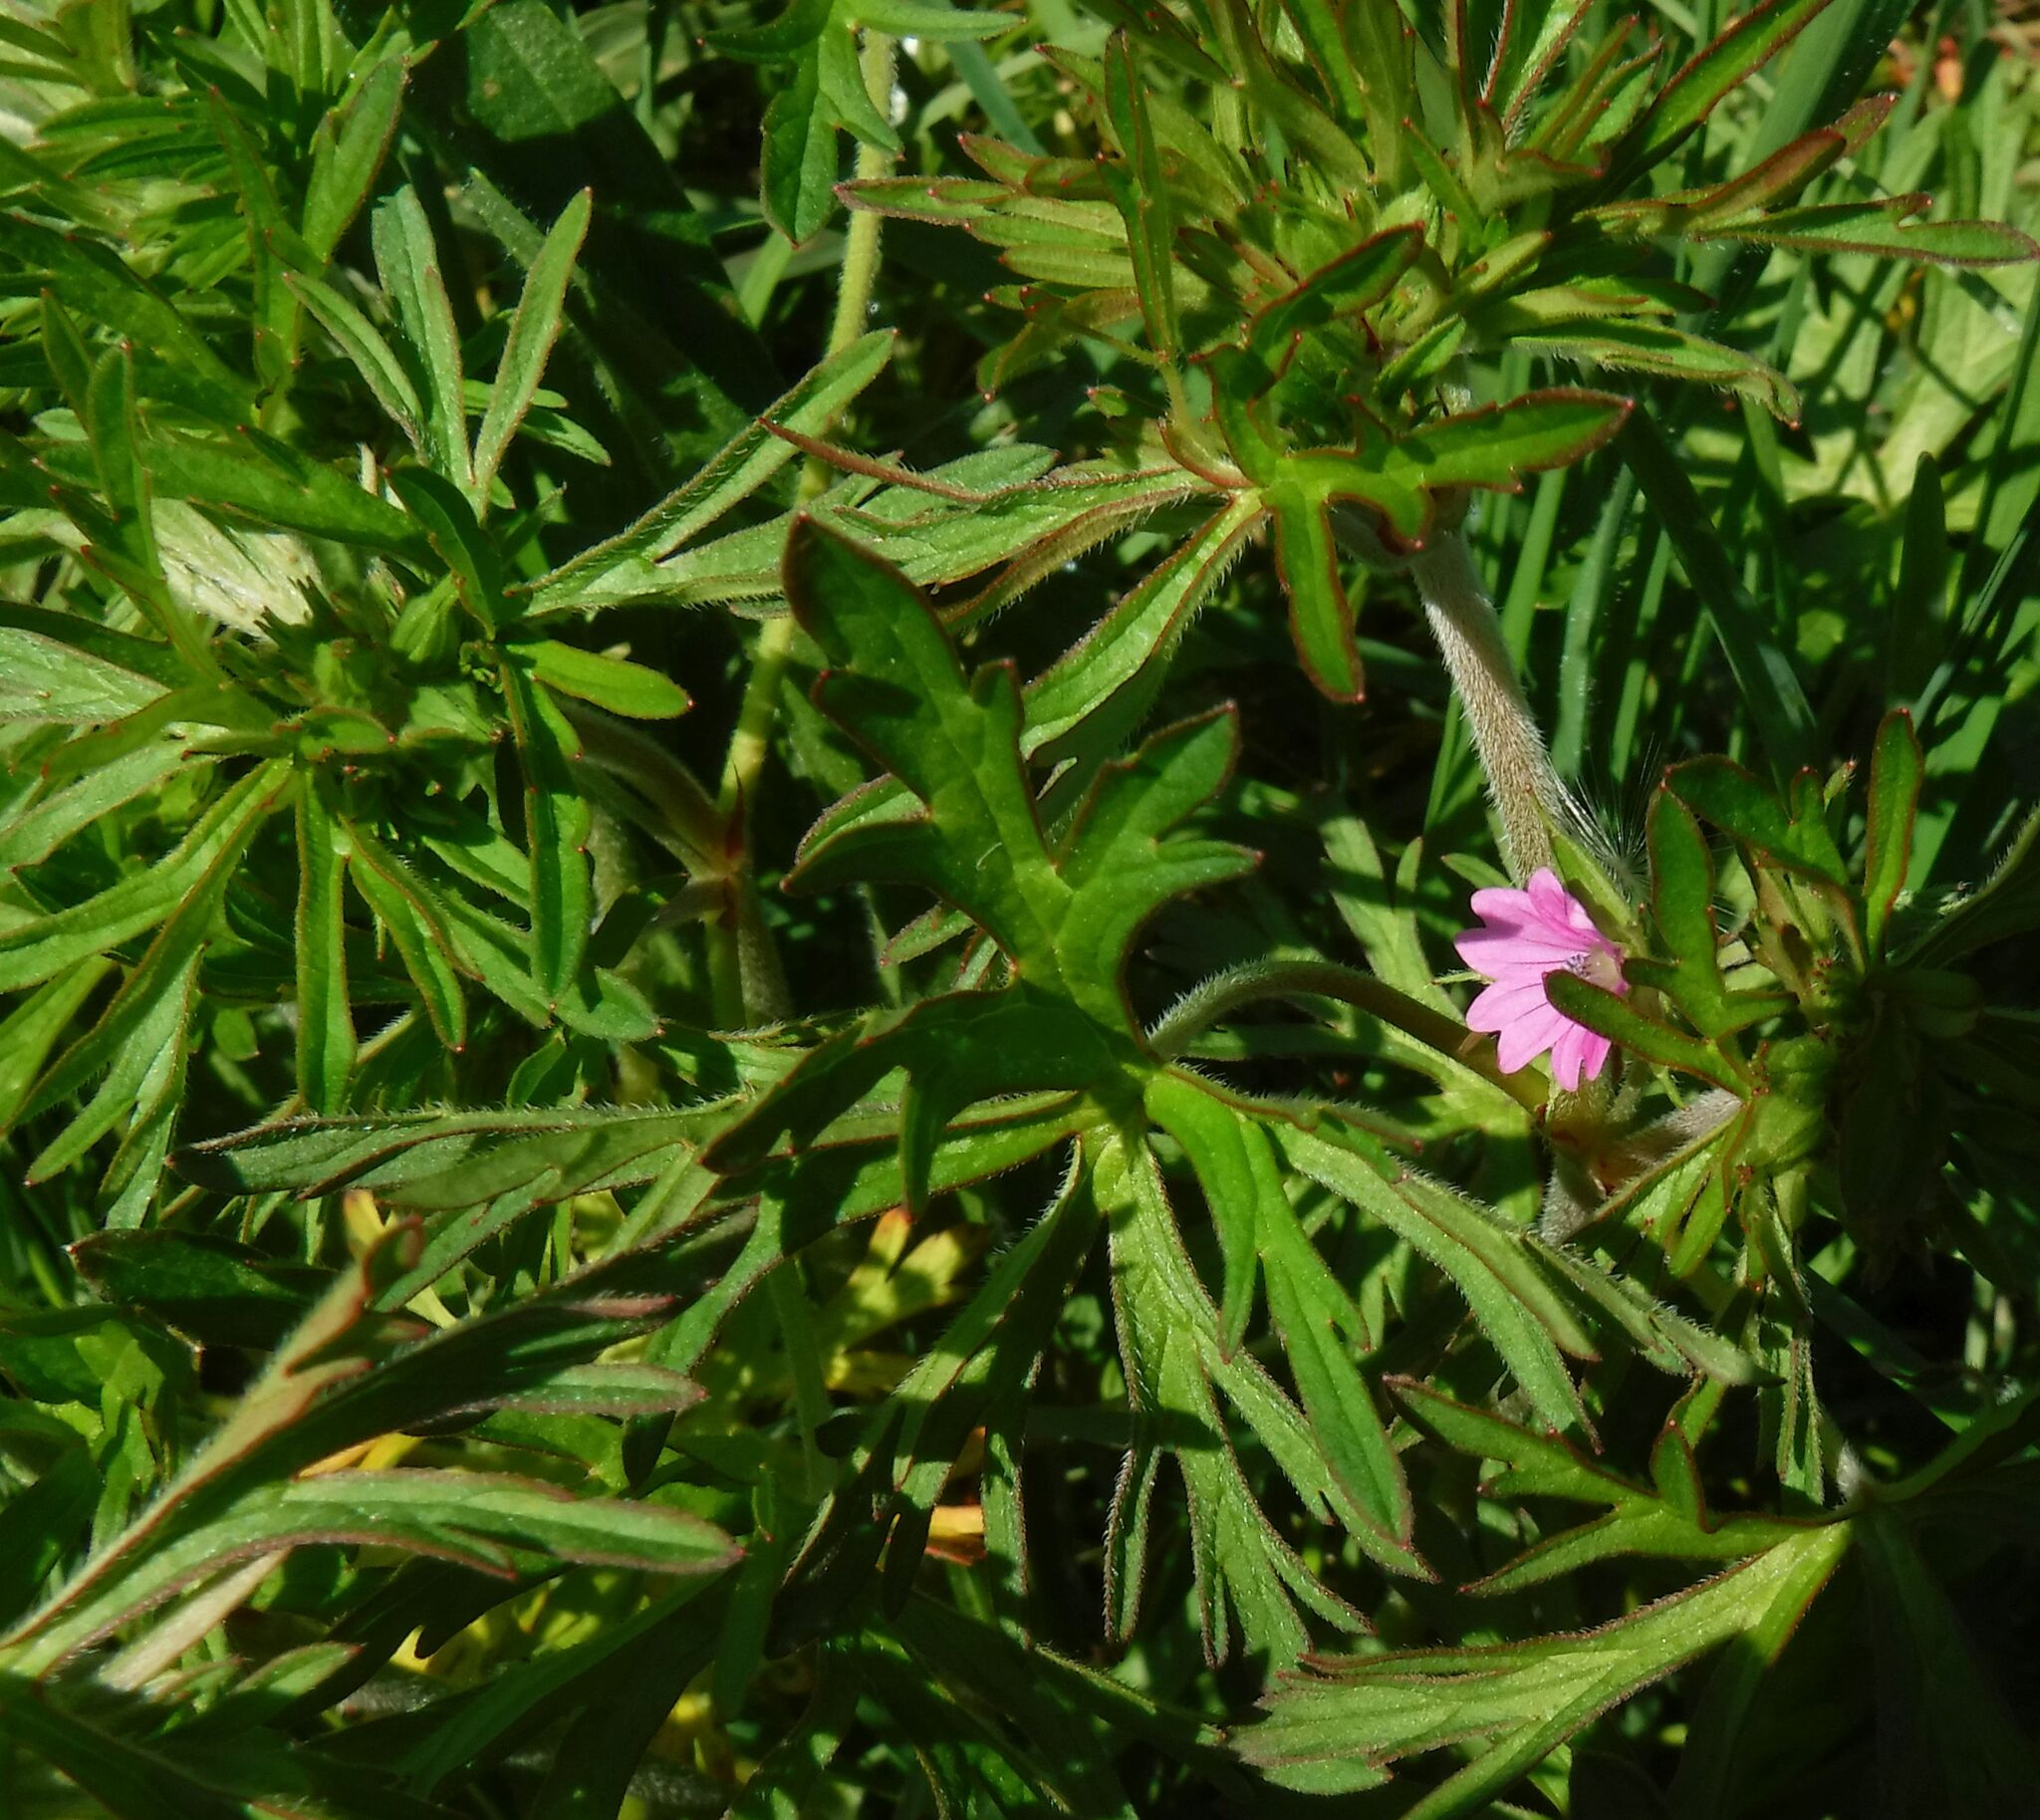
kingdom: Plantae
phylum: Tracheophyta
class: Magnoliopsida
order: Geraniales
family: Geraniaceae
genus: Geranium
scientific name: Geranium dissectum
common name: Cut-leaved crane's-bill
